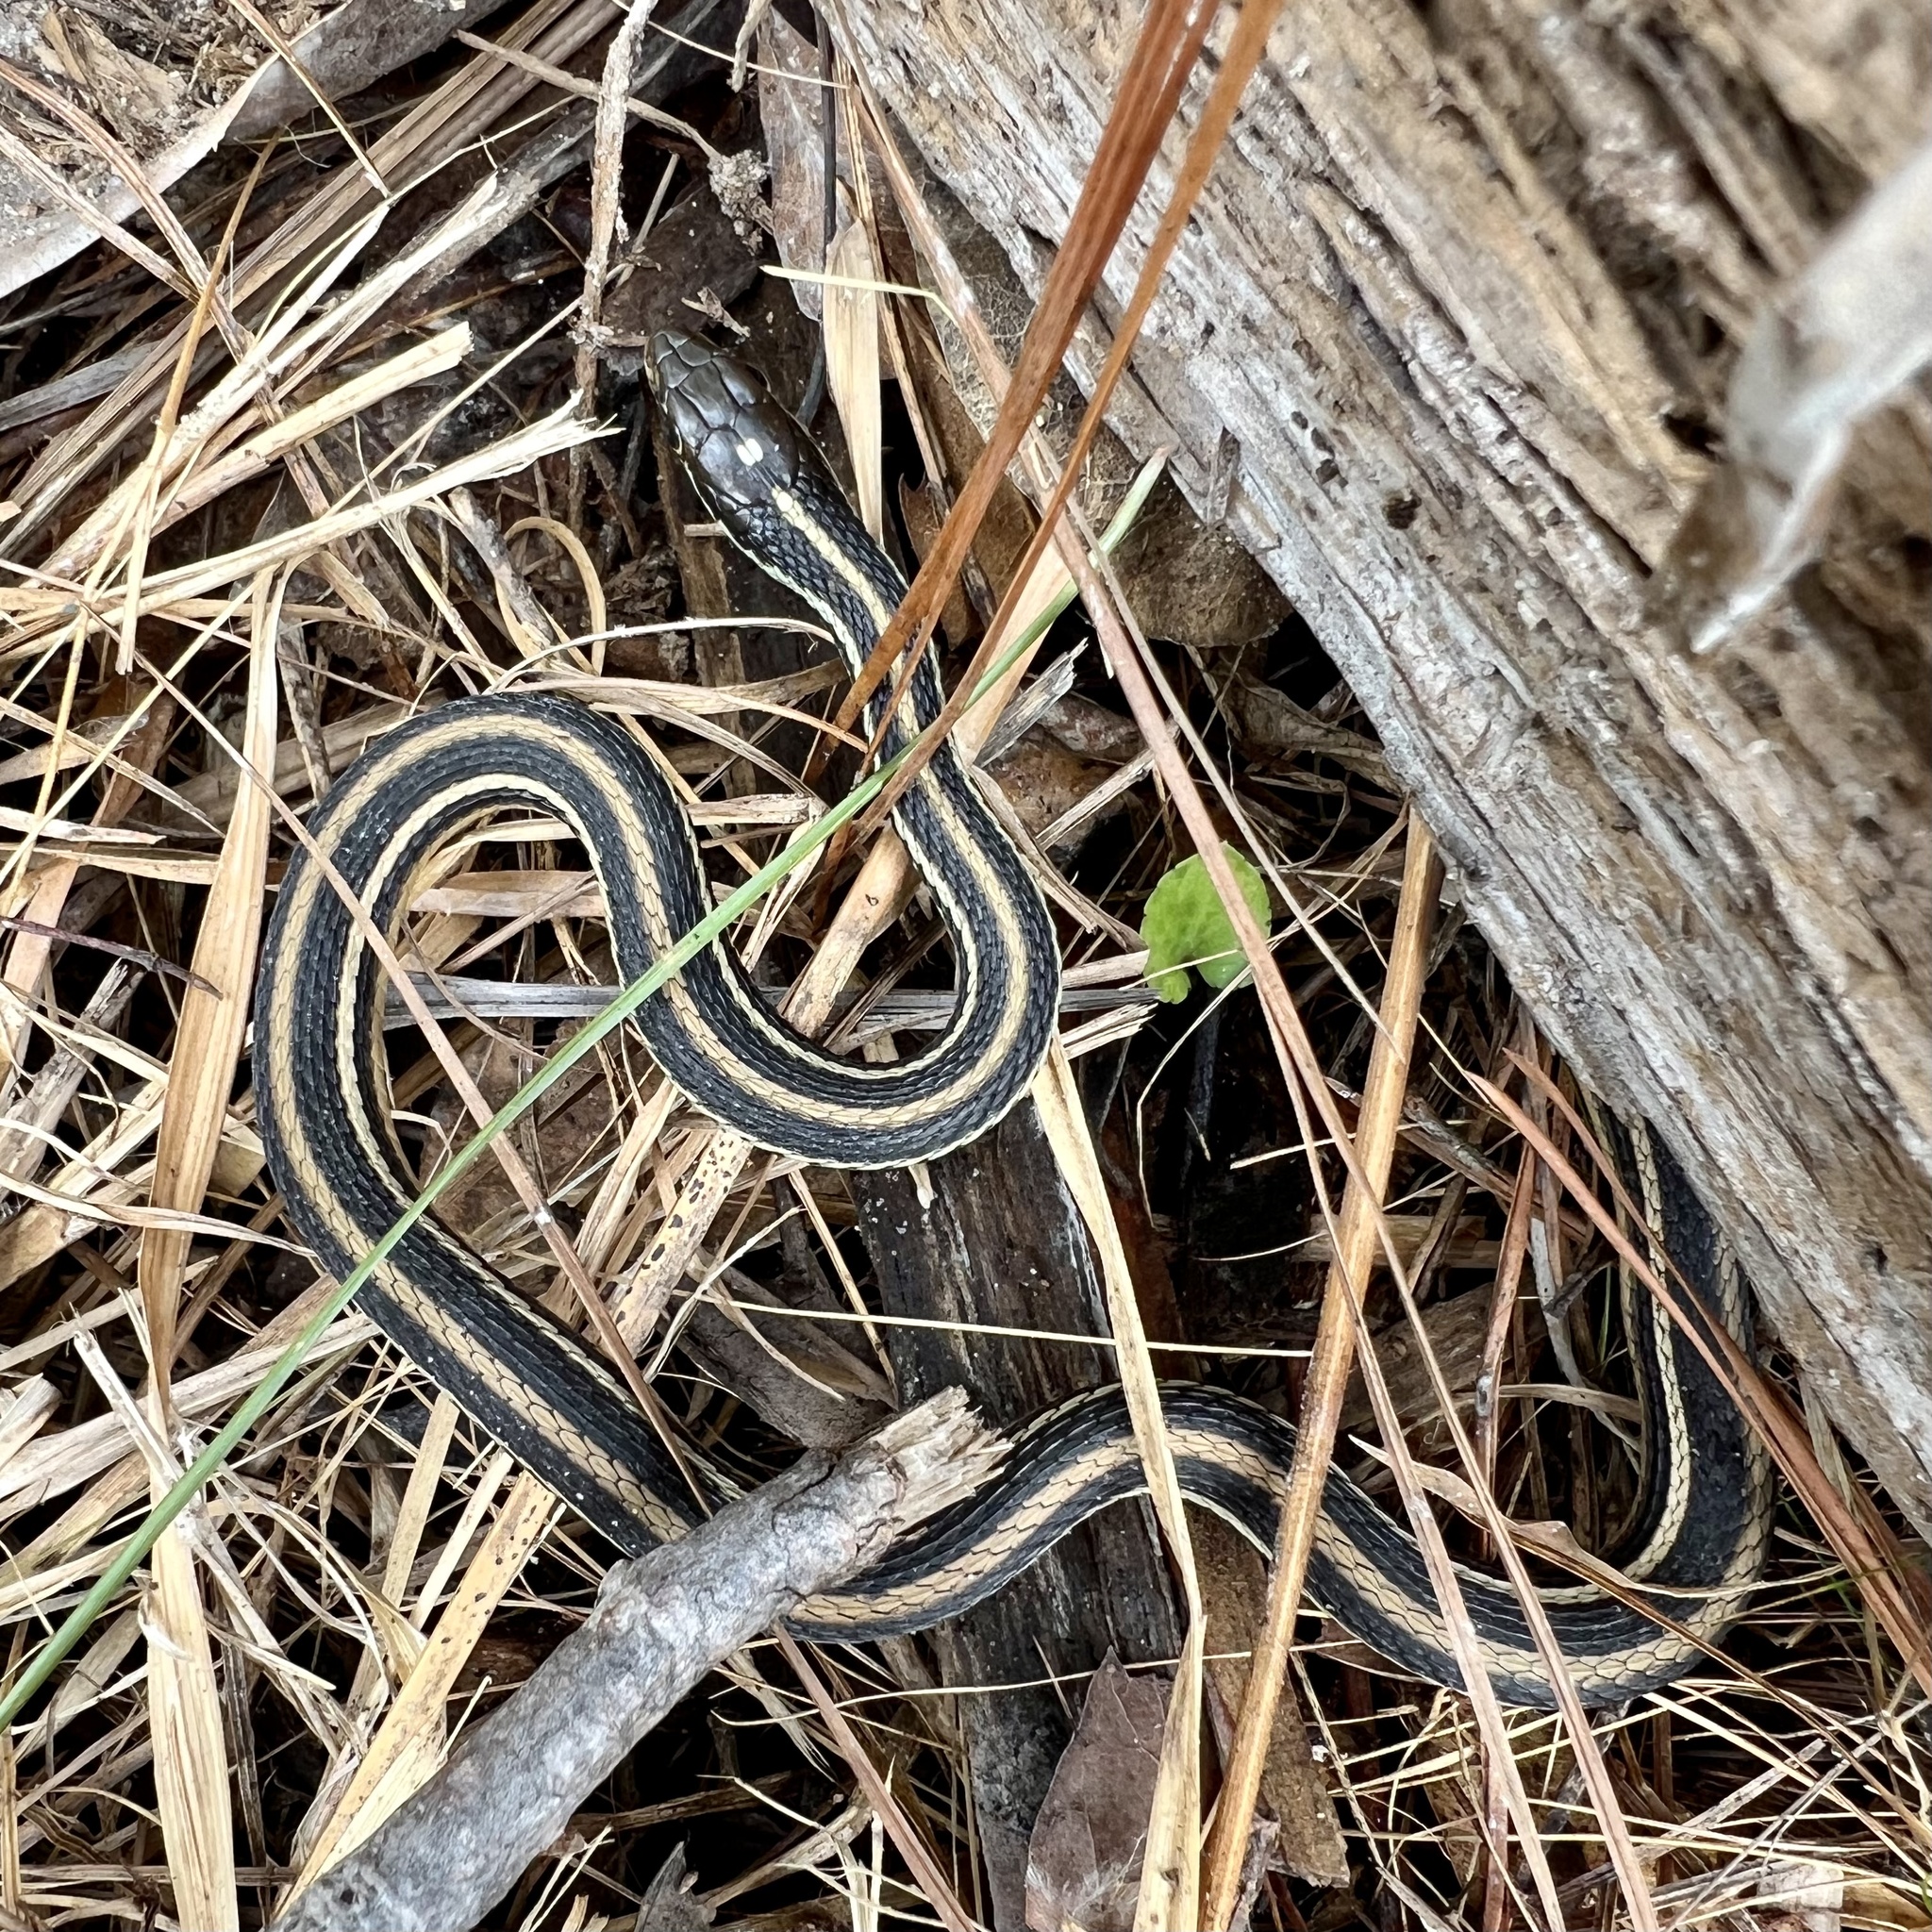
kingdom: Animalia
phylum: Chordata
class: Squamata
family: Colubridae
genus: Thamnophis
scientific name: Thamnophis proximus
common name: Western ribbon snake
